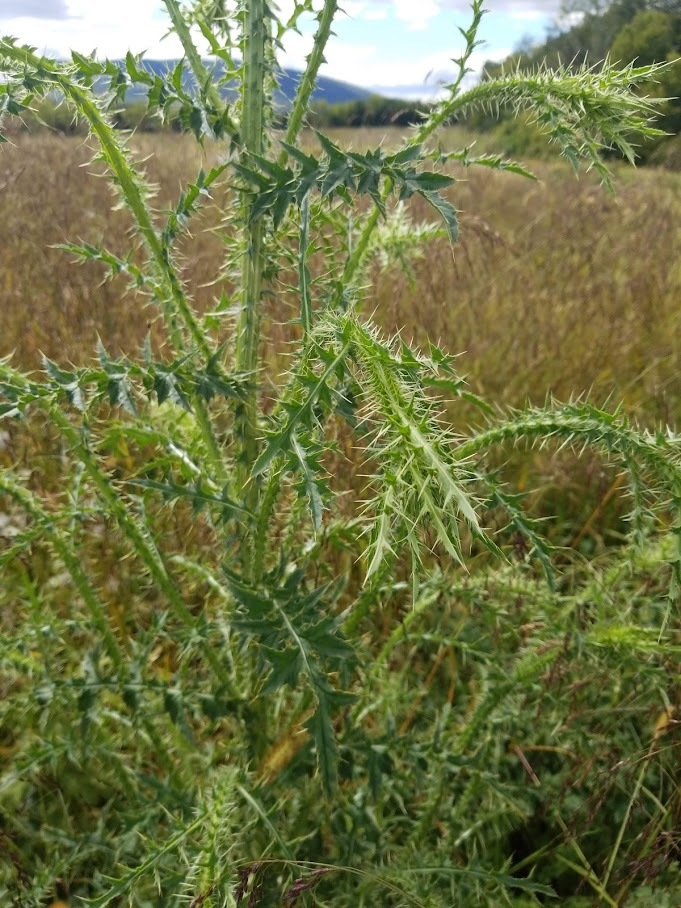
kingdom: Plantae
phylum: Tracheophyta
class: Magnoliopsida
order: Asterales
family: Asteraceae
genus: Carduus
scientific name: Carduus acanthoides
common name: Plumeless thistle
